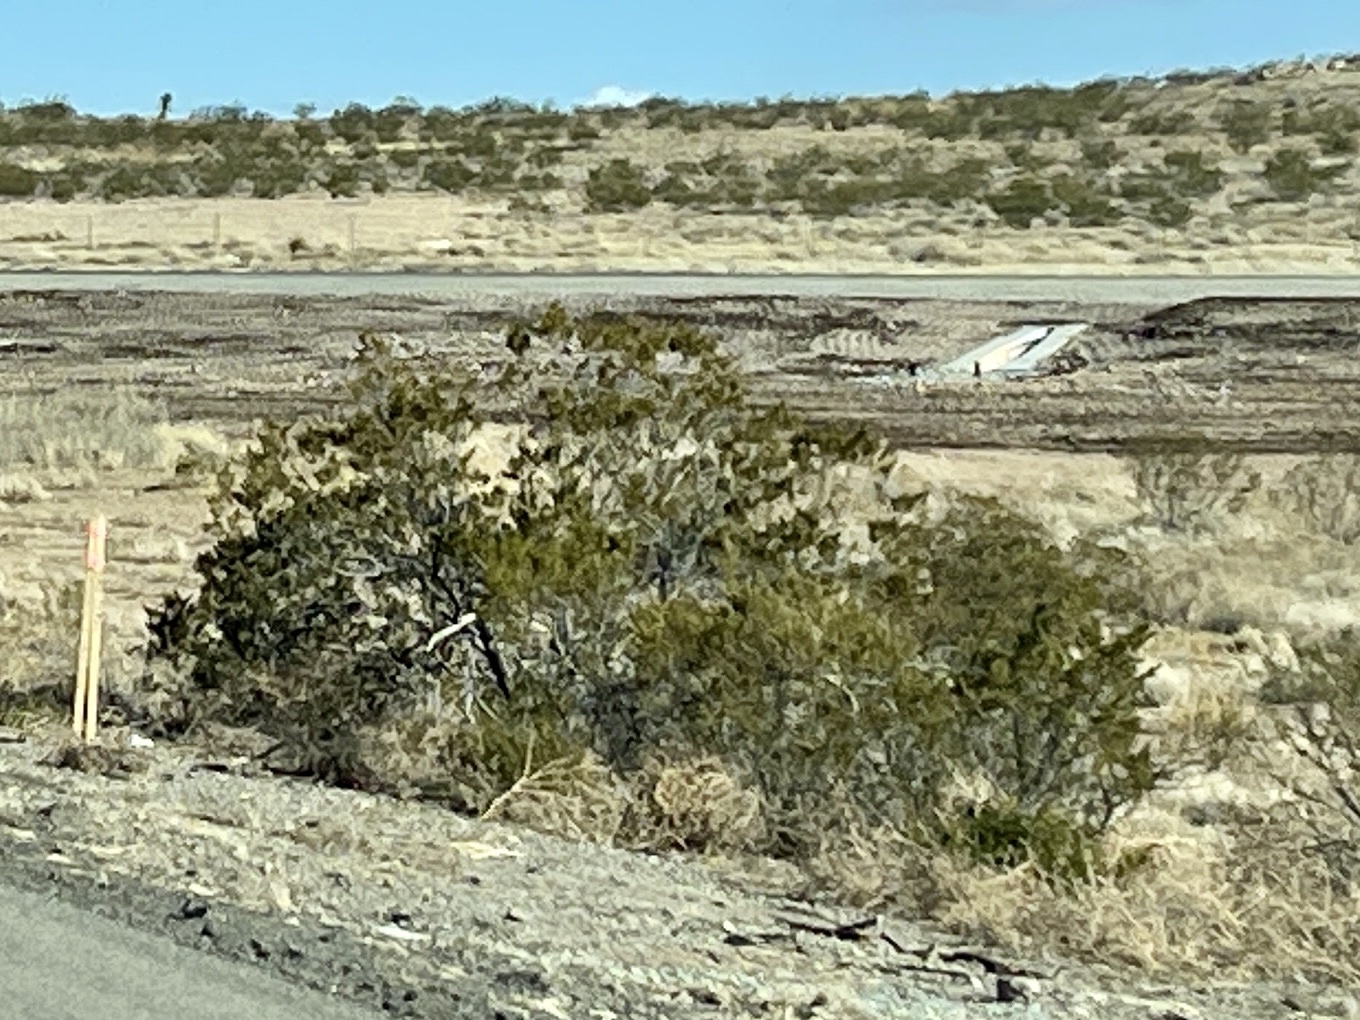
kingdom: Plantae
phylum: Tracheophyta
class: Magnoliopsida
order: Zygophyllales
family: Zygophyllaceae
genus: Larrea
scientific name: Larrea tridentata
